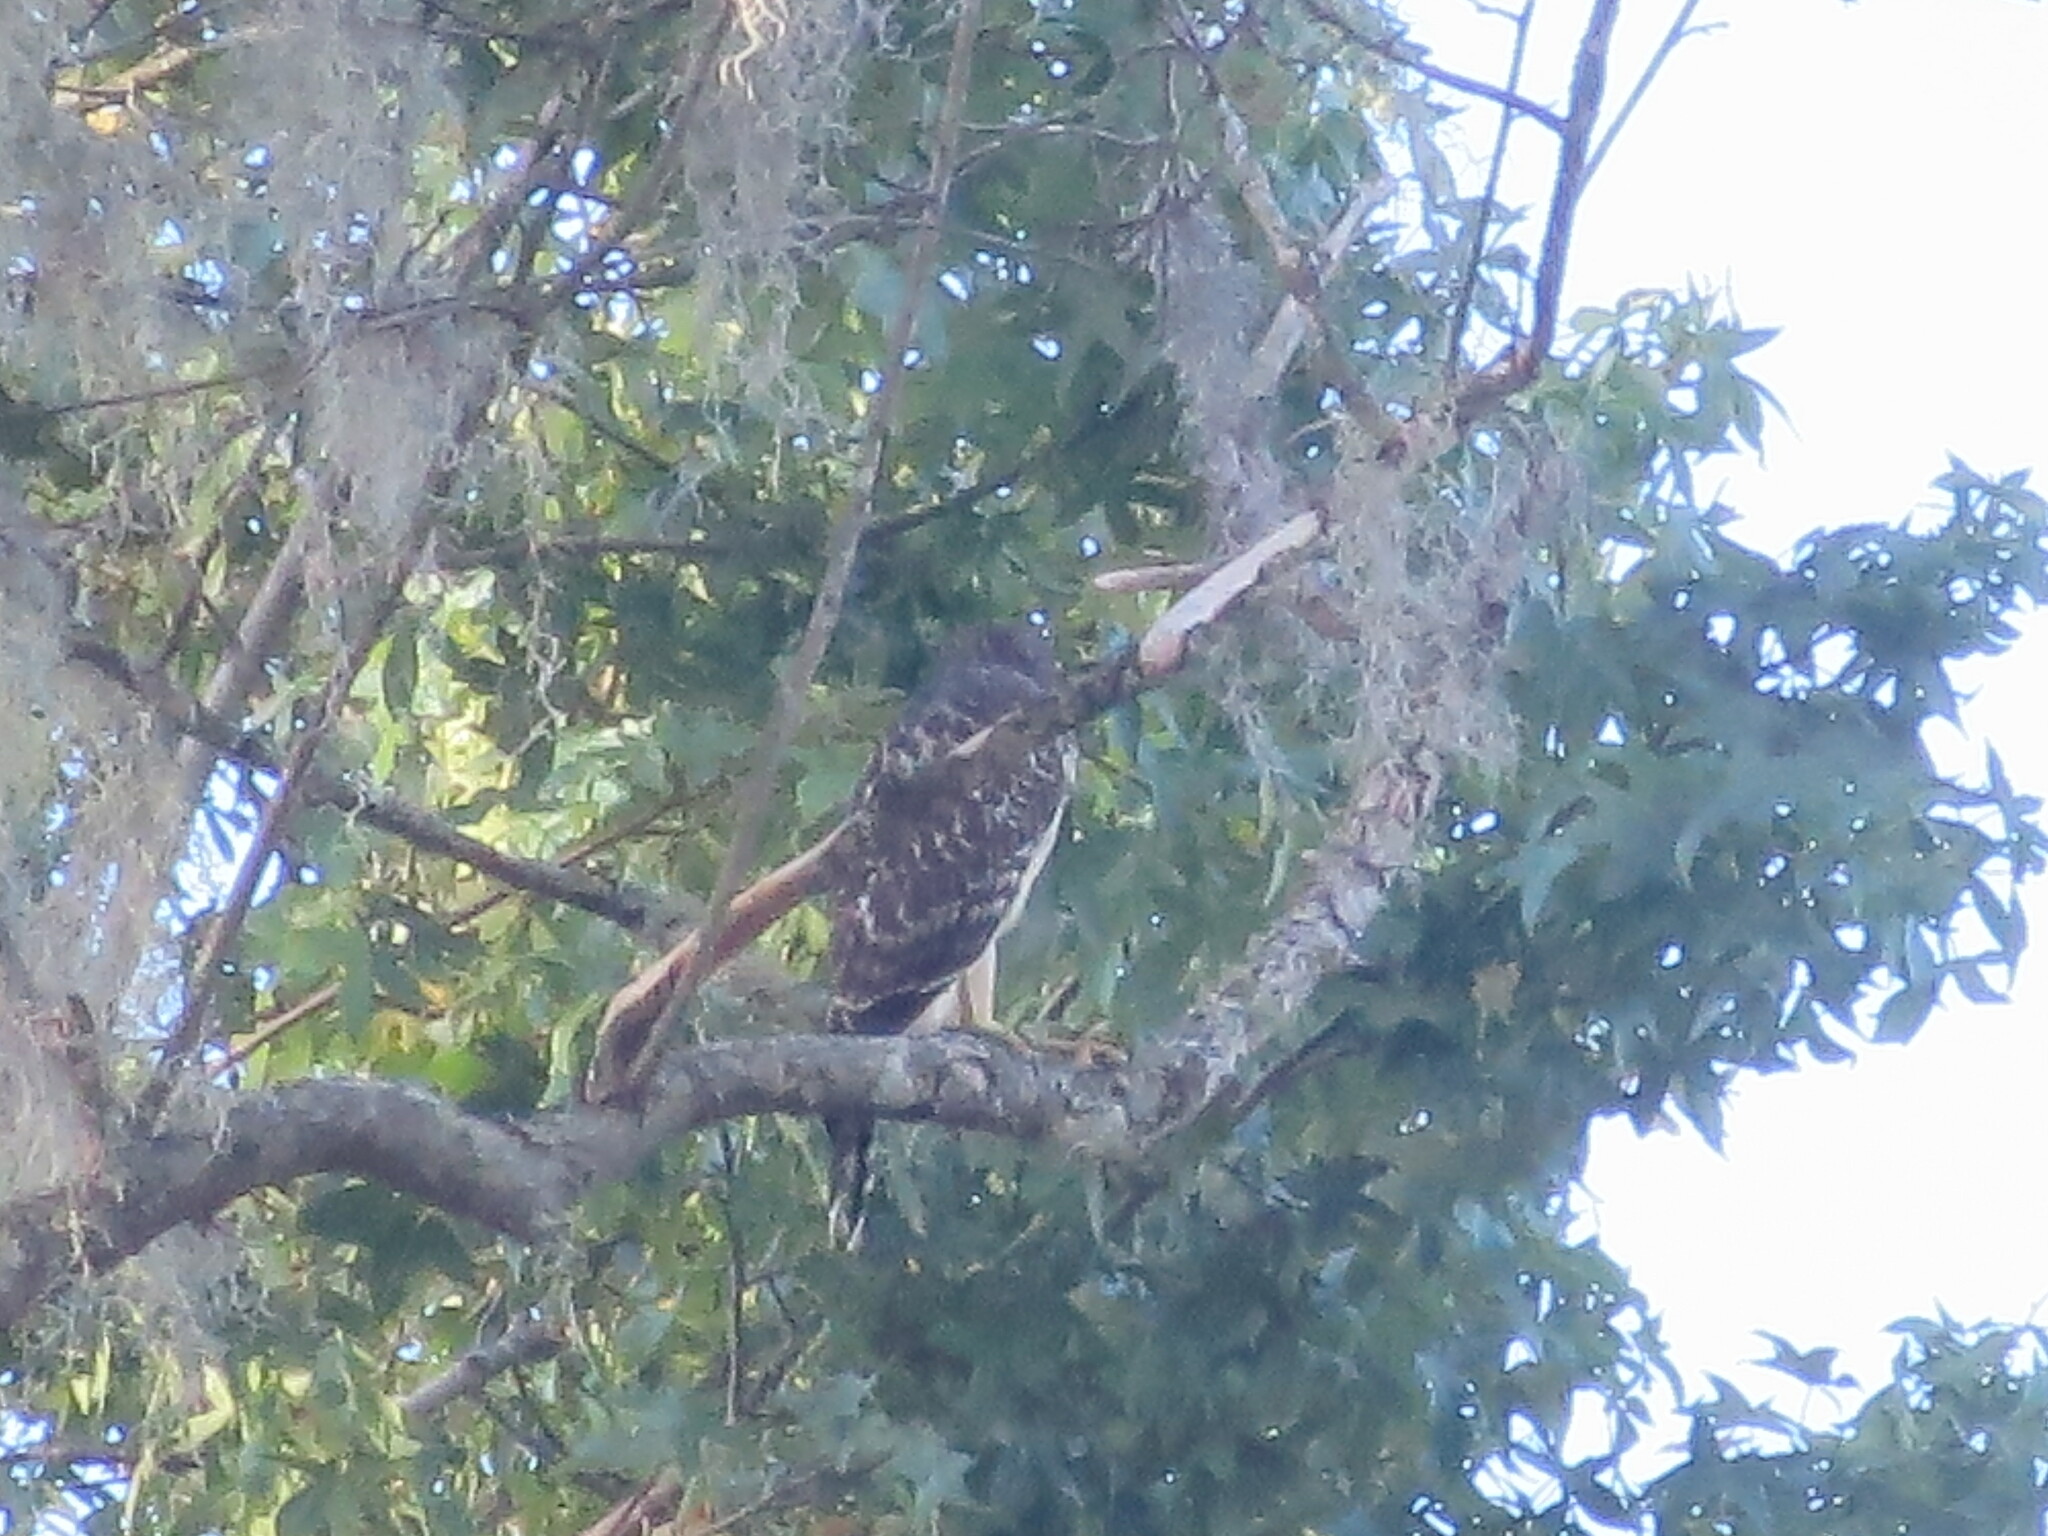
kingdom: Animalia
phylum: Chordata
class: Aves
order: Accipitriformes
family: Accipitridae
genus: Buteo
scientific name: Buteo lineatus
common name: Red-shouldered hawk
